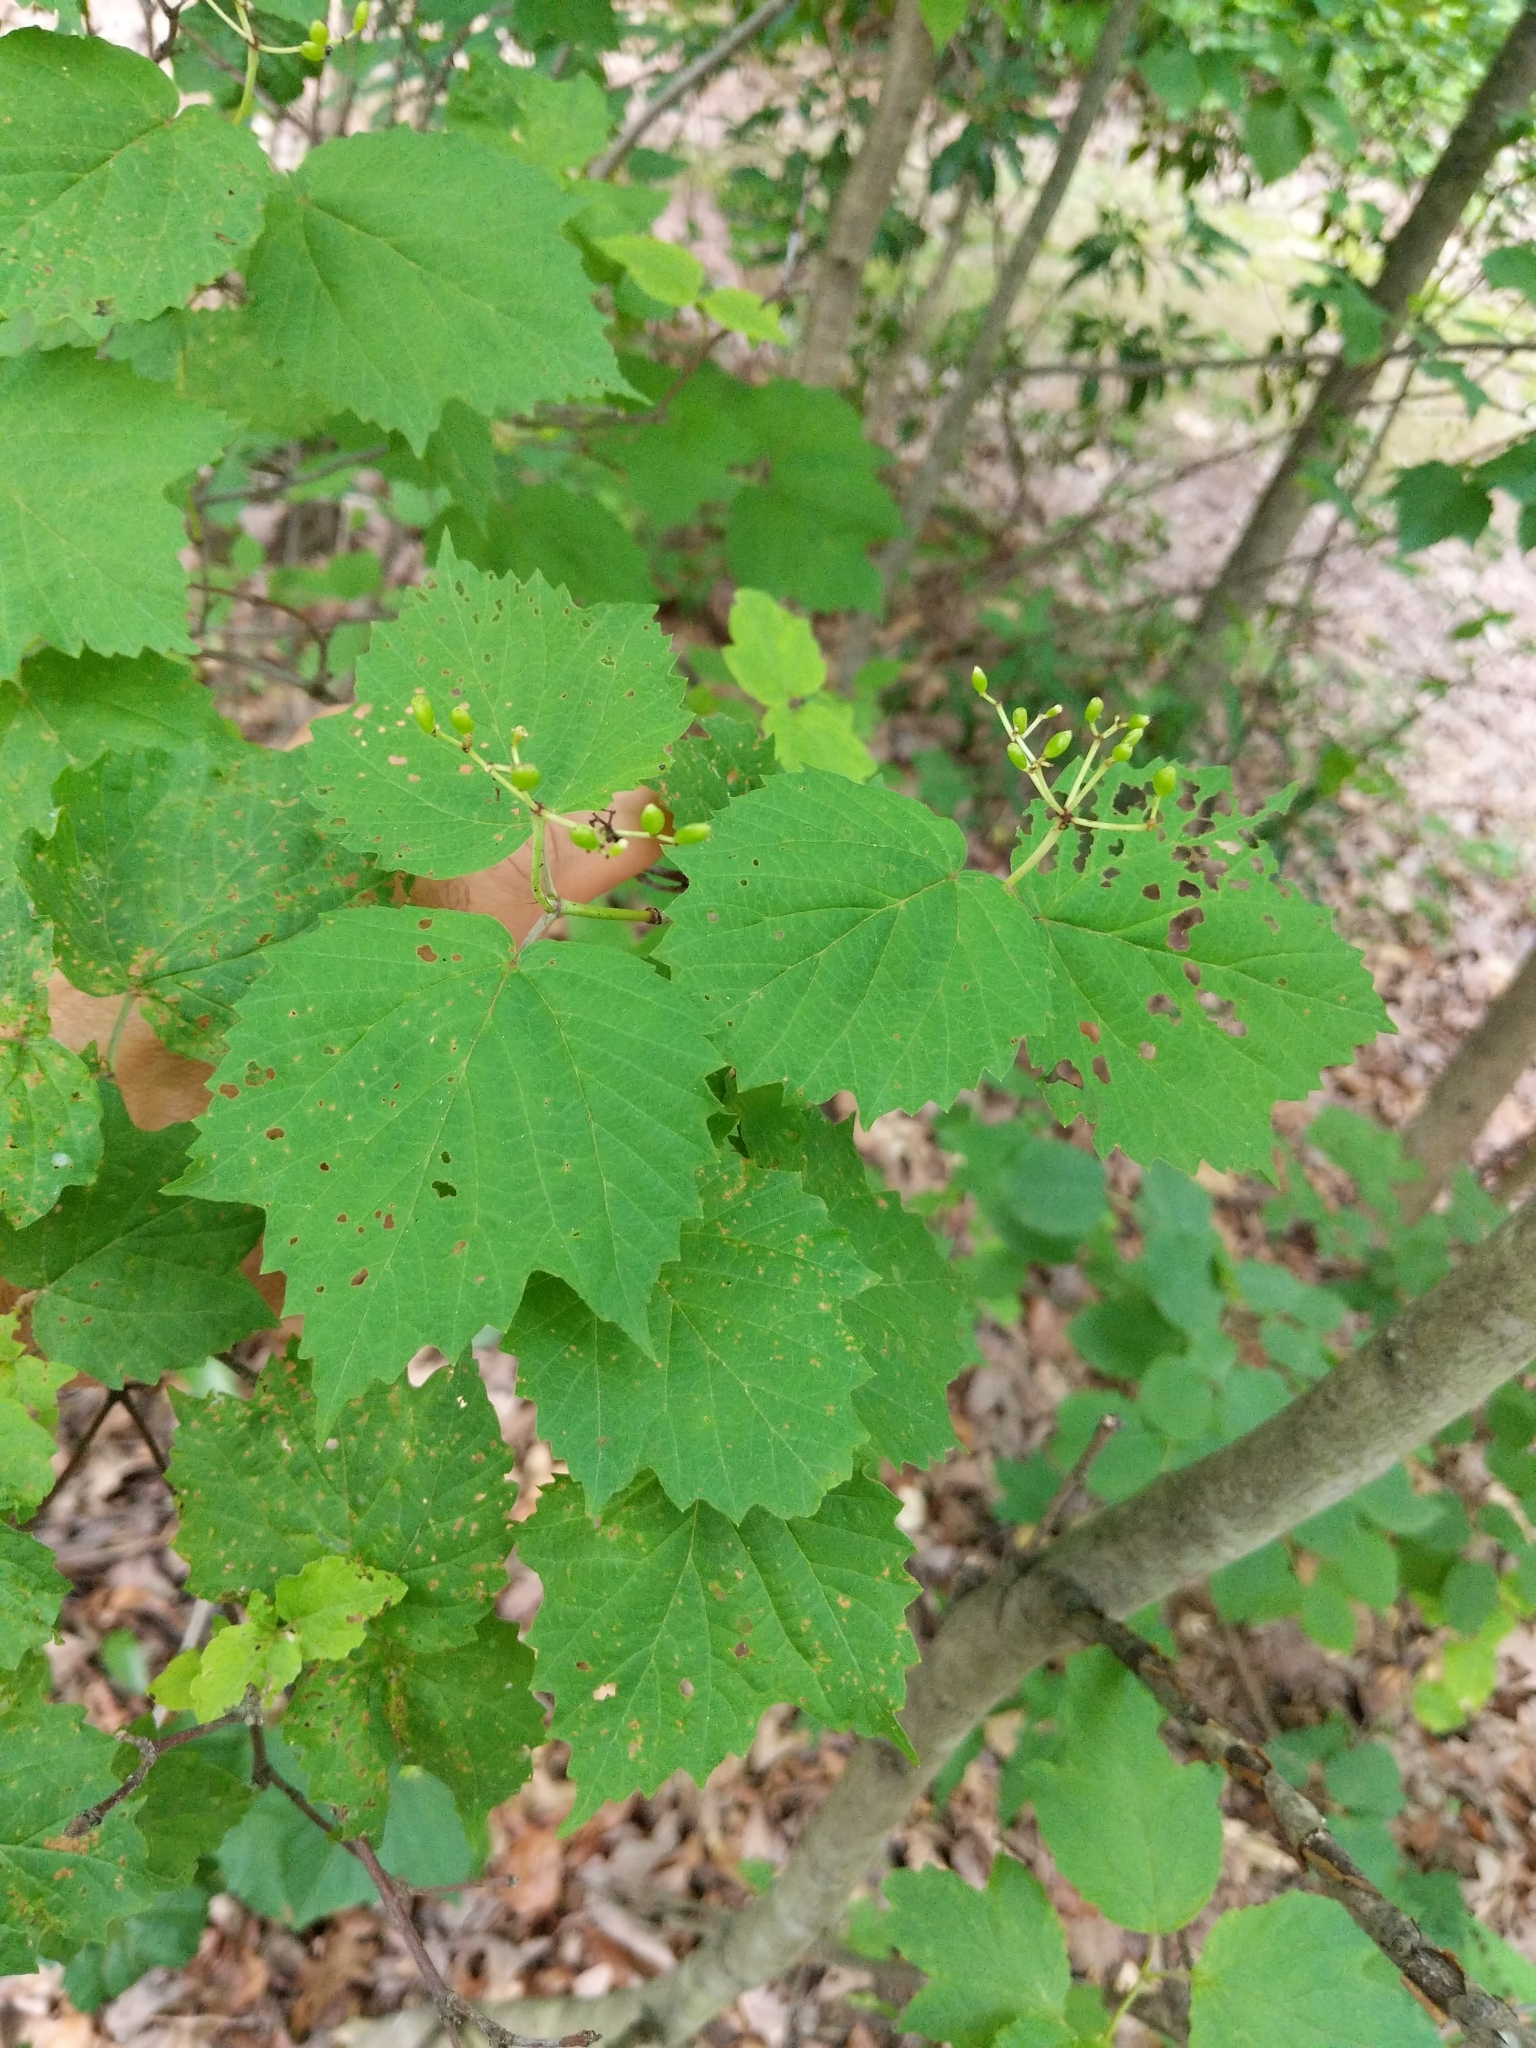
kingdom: Plantae
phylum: Tracheophyta
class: Magnoliopsida
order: Dipsacales
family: Viburnaceae
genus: Viburnum
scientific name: Viburnum acerifolium
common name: Dockmackie
